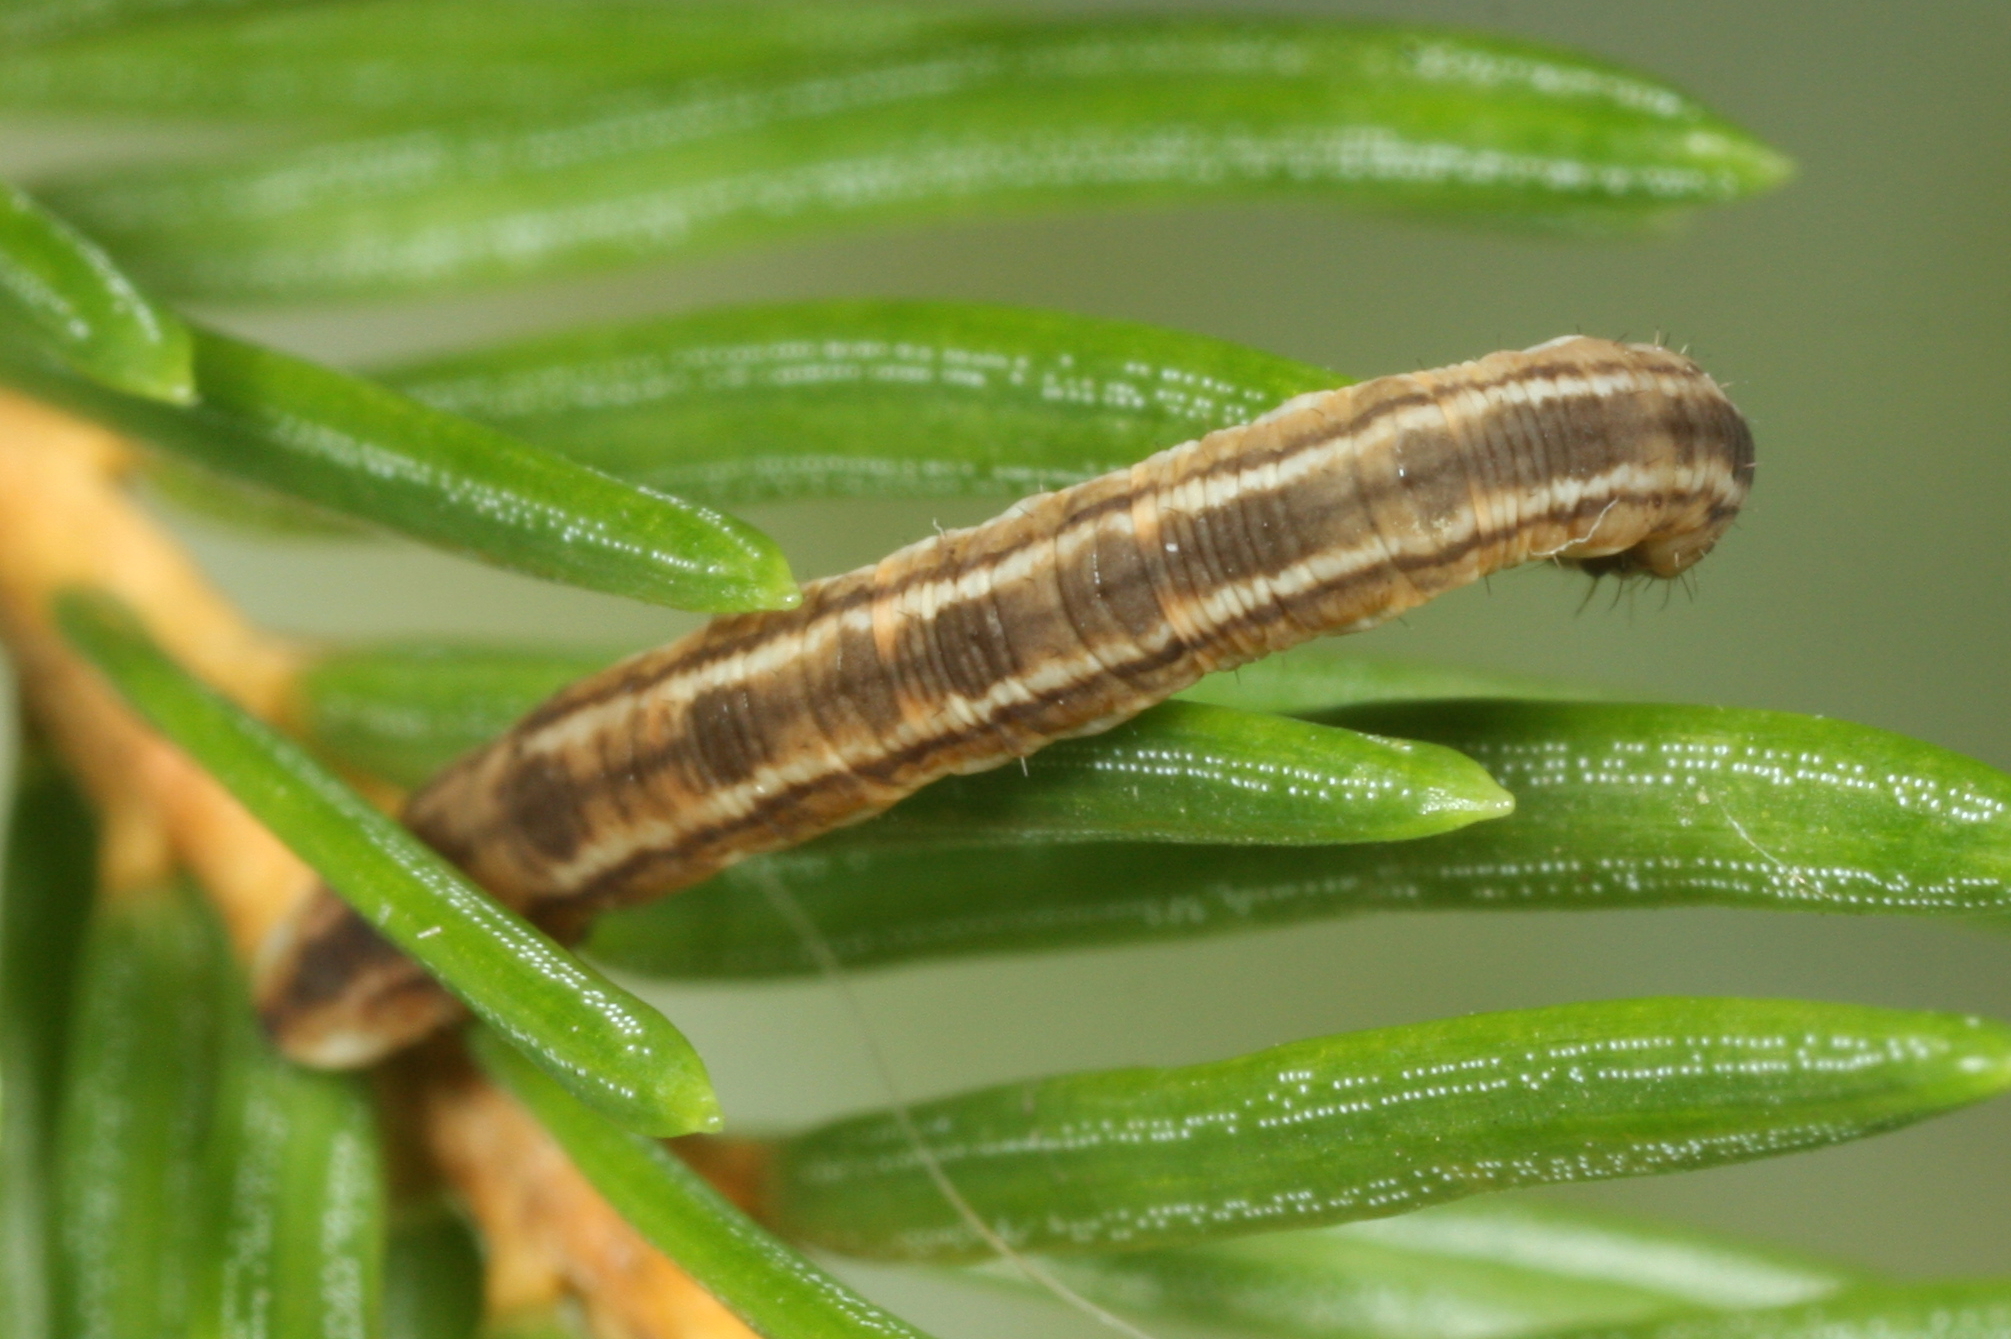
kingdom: Animalia
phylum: Arthropoda
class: Insecta
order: Lepidoptera
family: Geometridae
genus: Eupithecia
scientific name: Eupithecia tantillaria
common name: Dwarf pug
